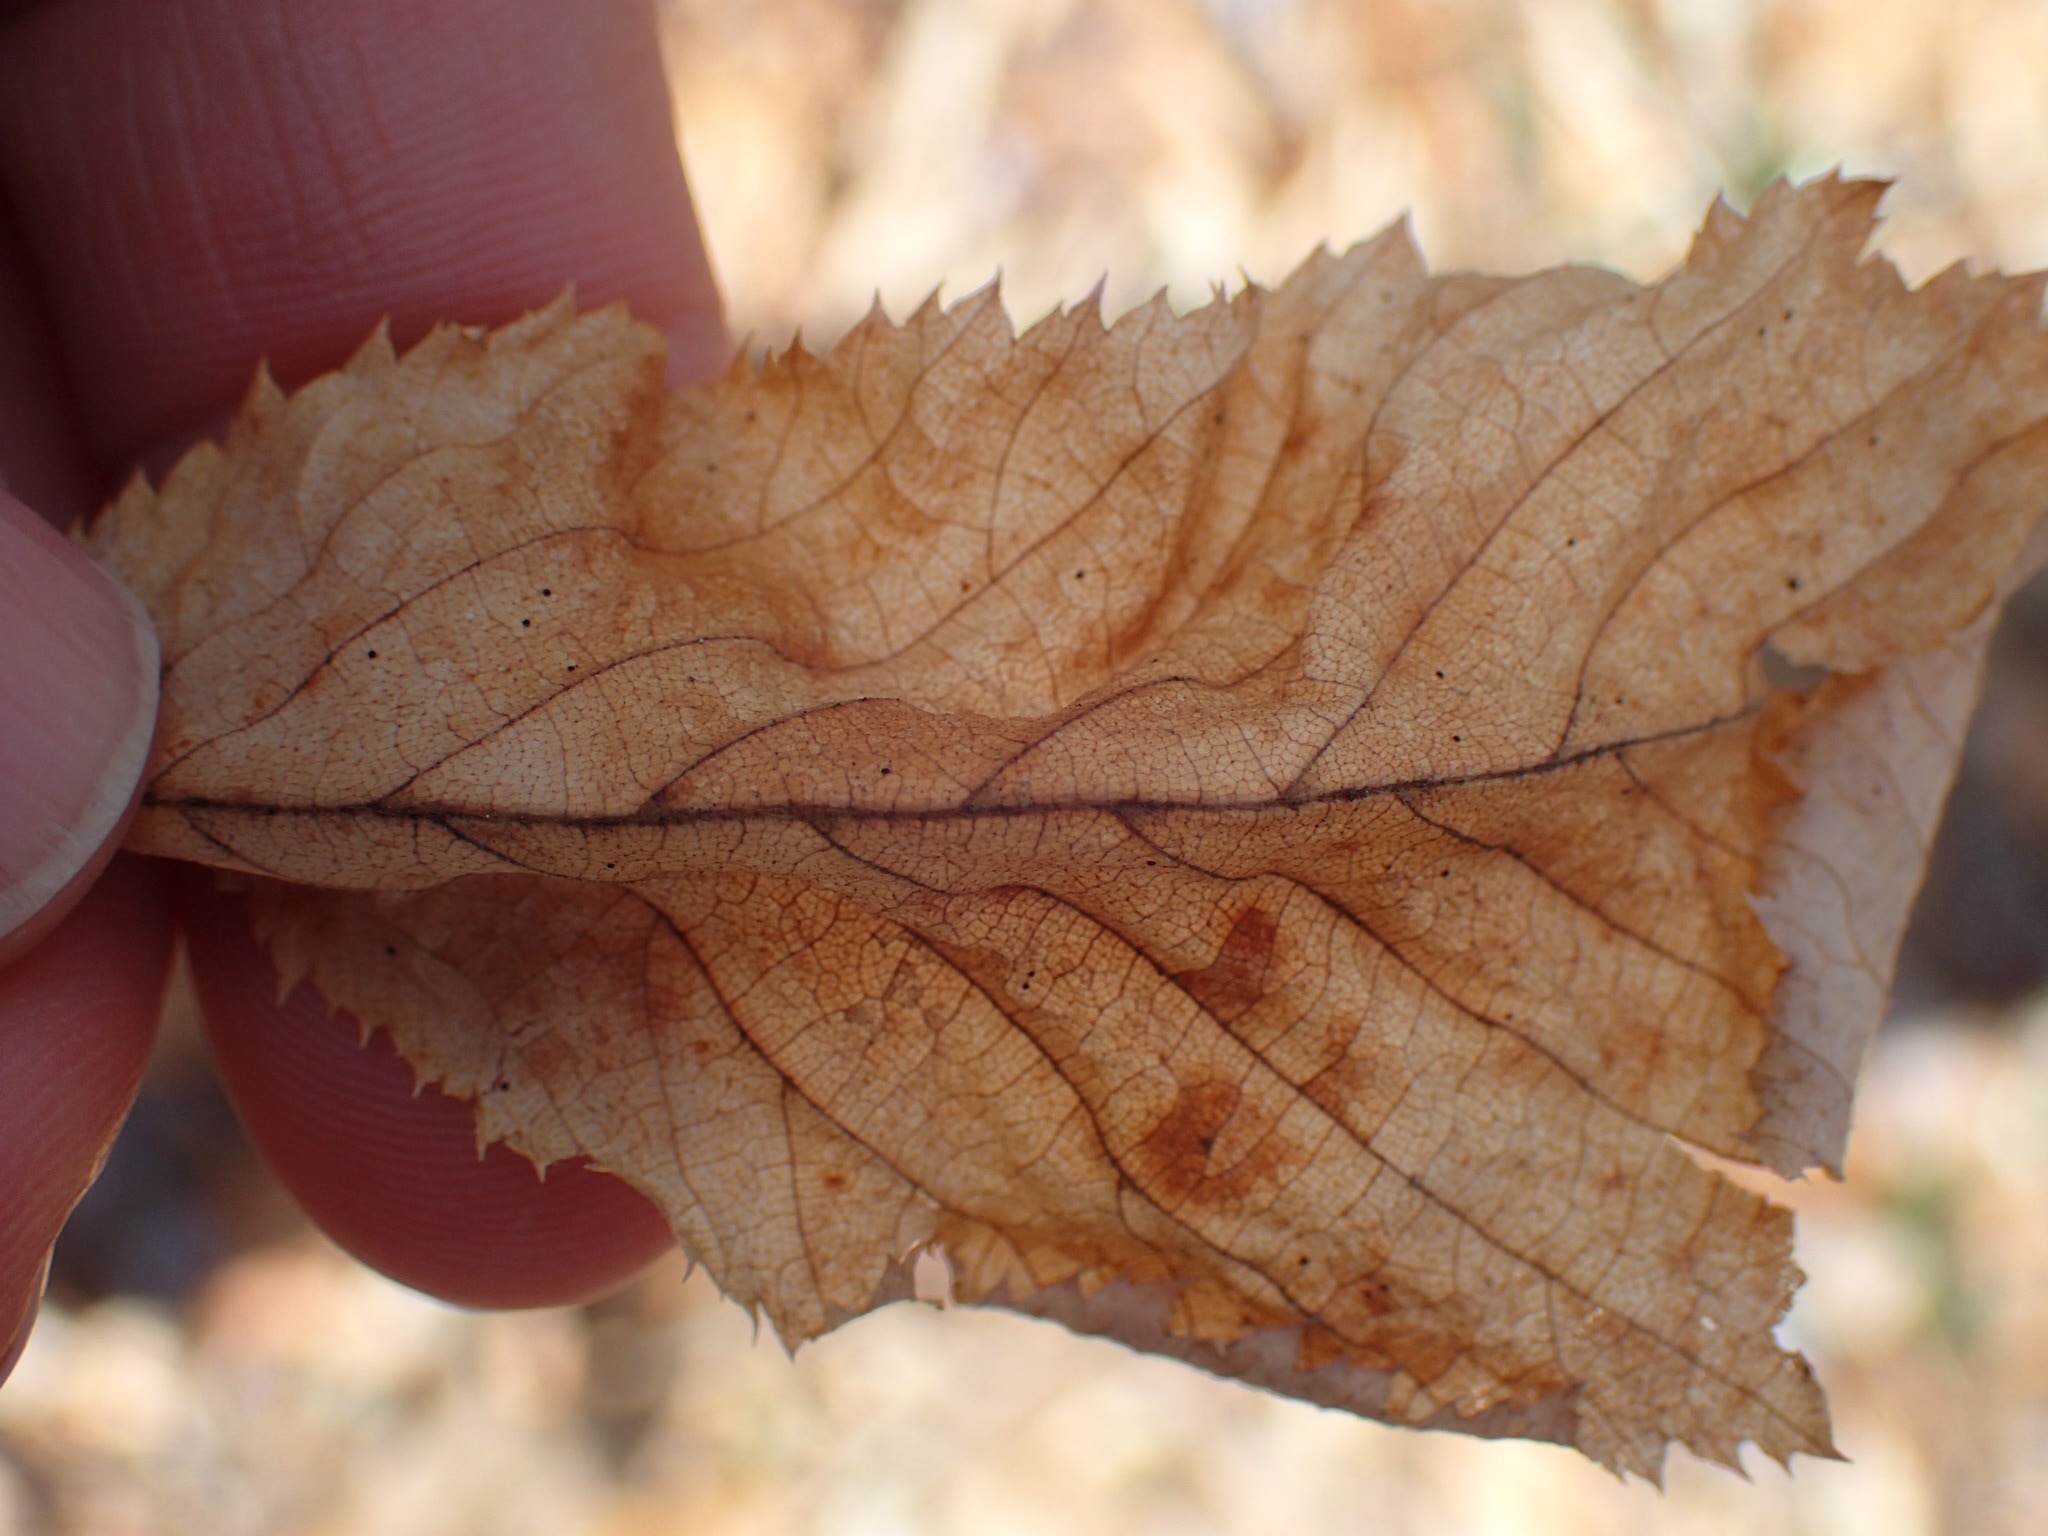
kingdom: Plantae
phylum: Tracheophyta
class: Magnoliopsida
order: Fagales
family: Betulaceae
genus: Ostrya
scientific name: Ostrya virginiana
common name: Ironwood
